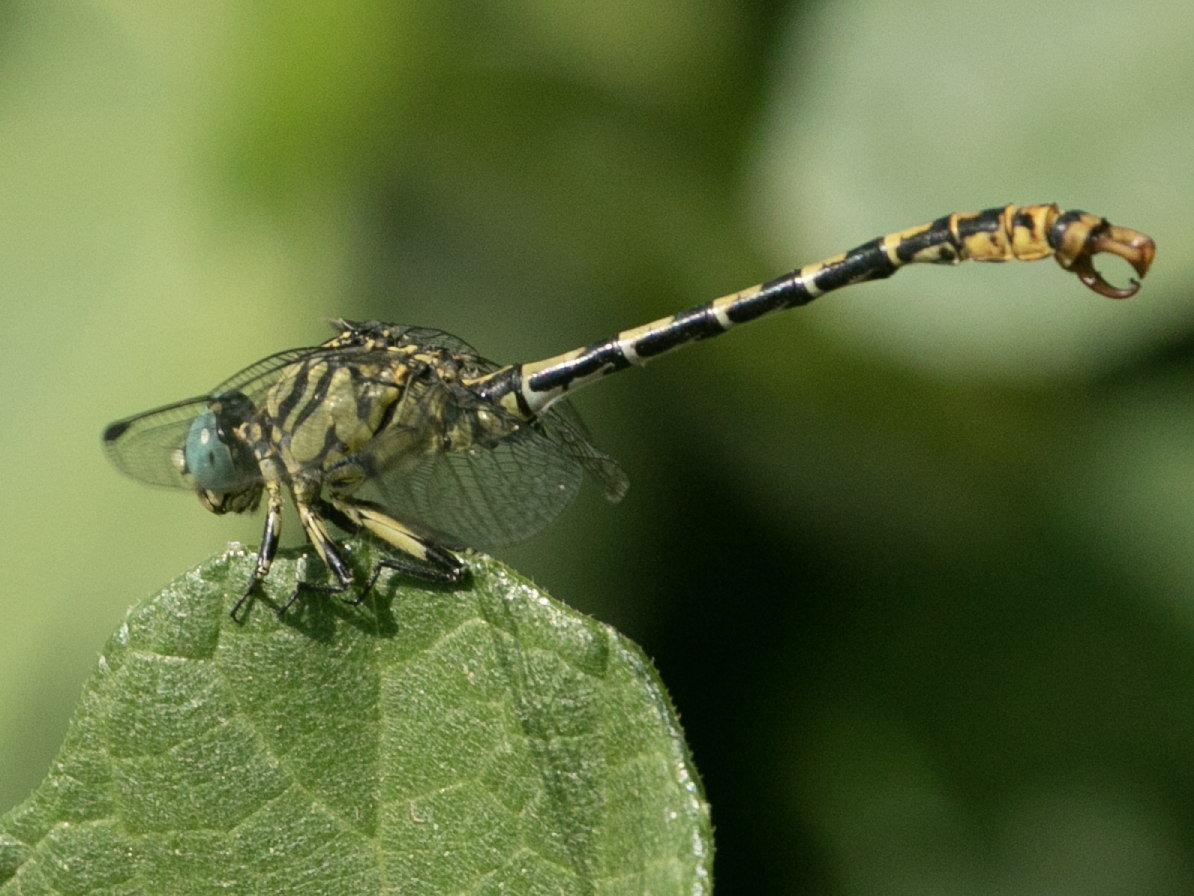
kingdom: Animalia
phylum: Arthropoda
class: Insecta
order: Odonata
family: Gomphidae
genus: Onychogomphus
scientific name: Onychogomphus forcipatus
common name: Small pincertail
